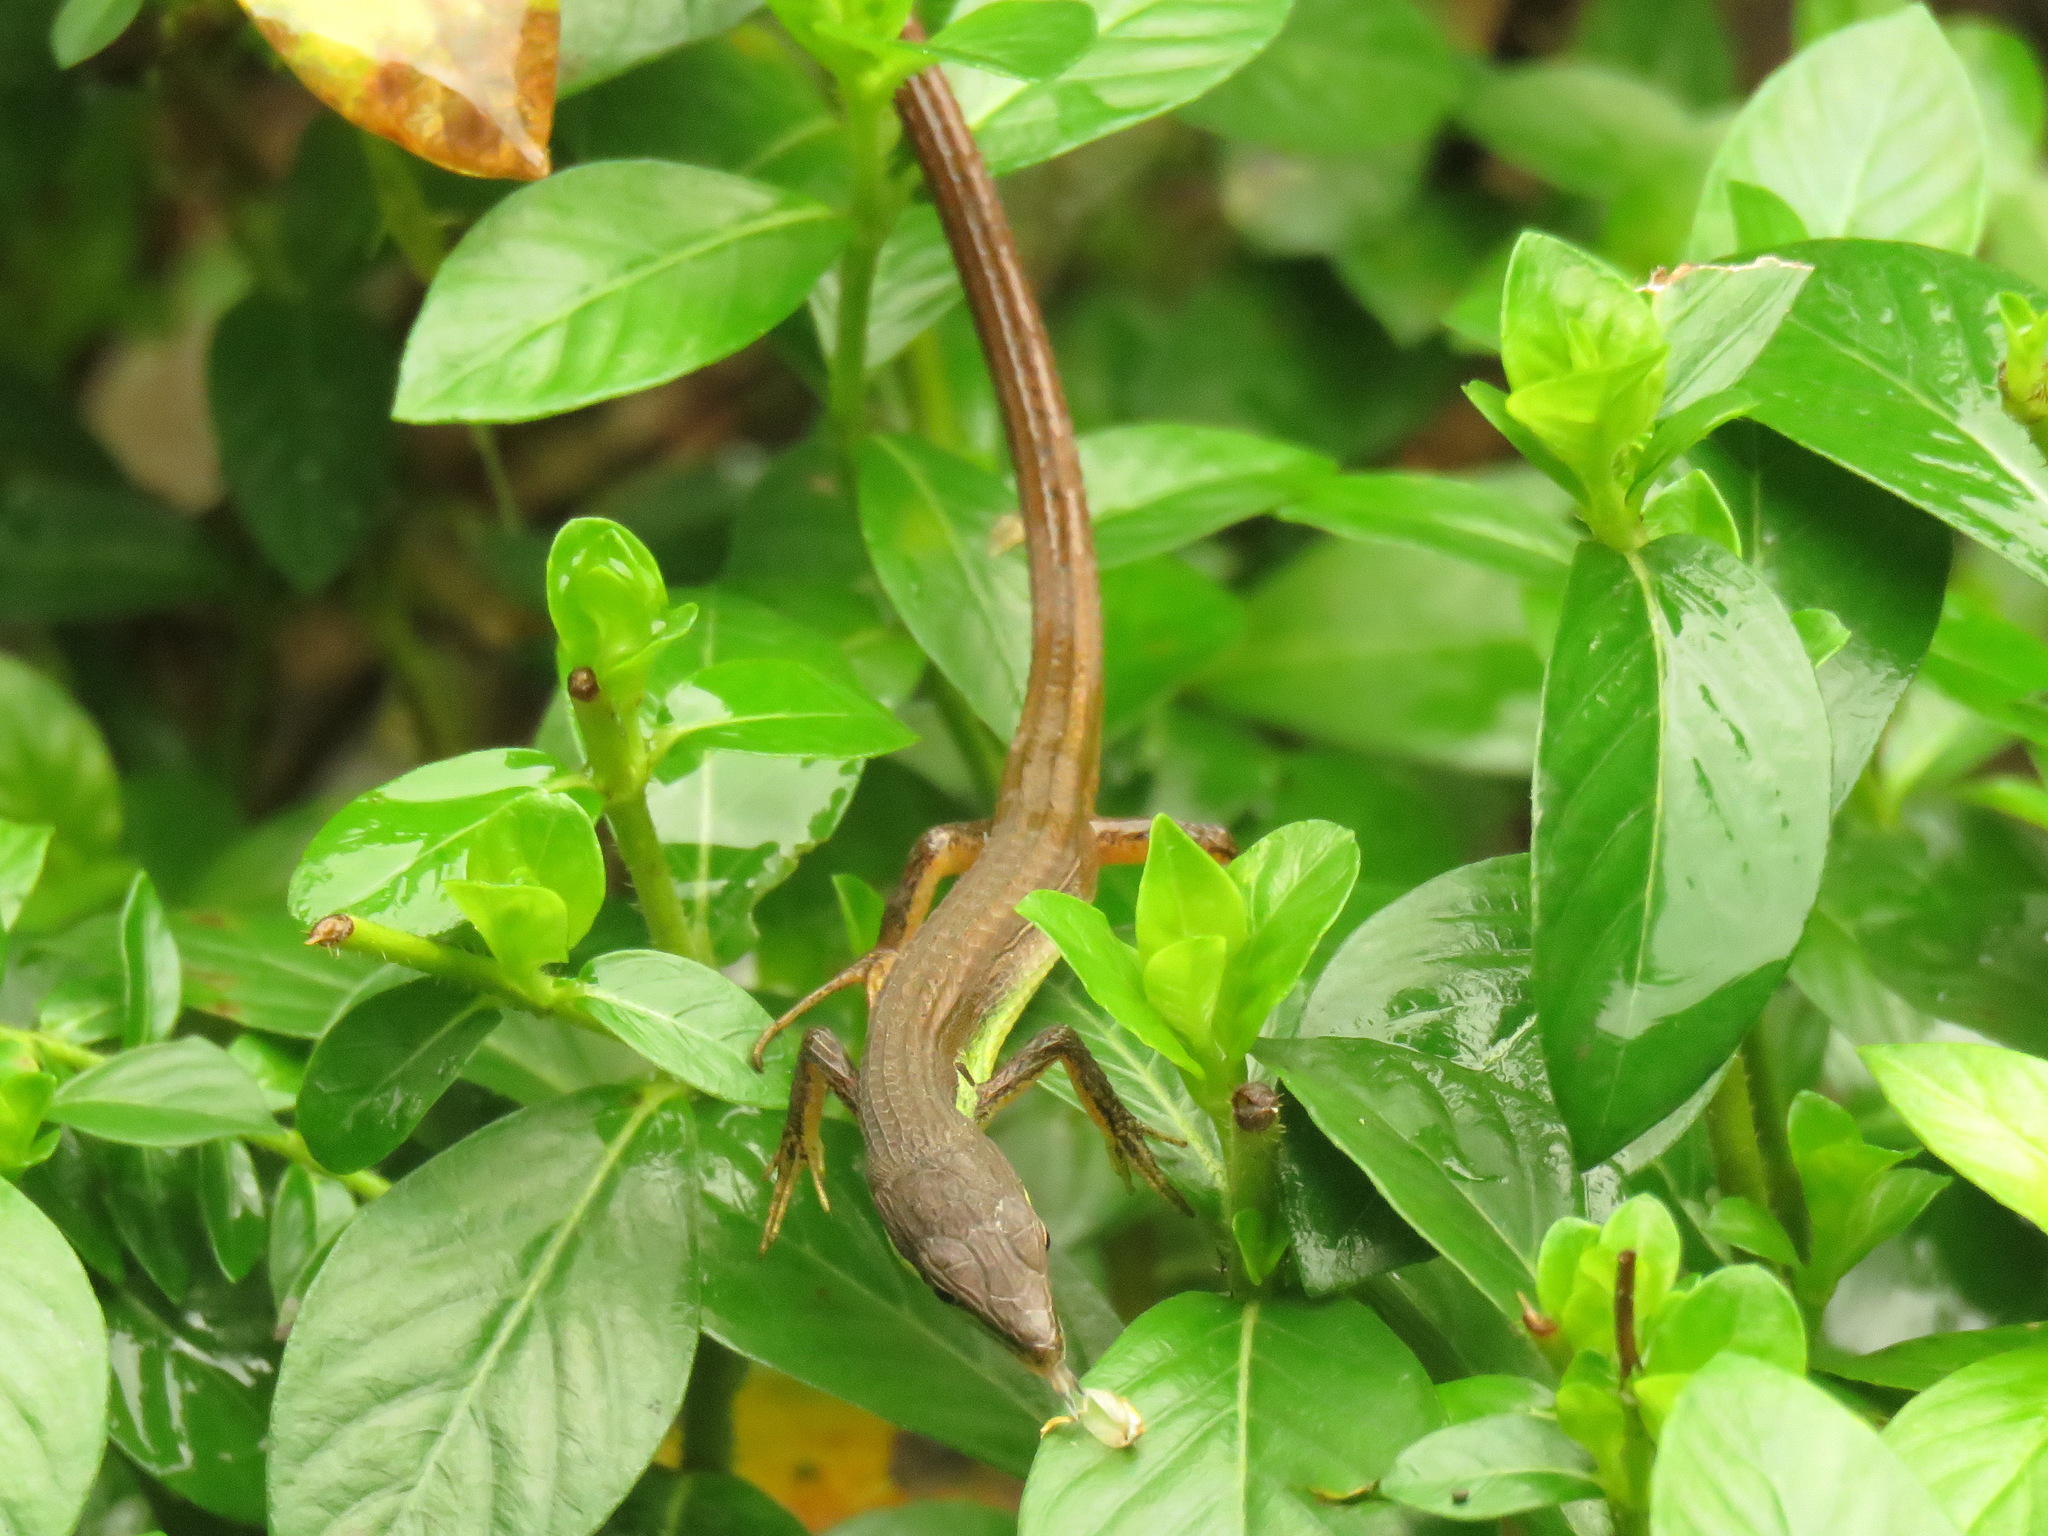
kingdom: Animalia
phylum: Chordata
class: Squamata
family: Lacertidae
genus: Takydromus
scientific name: Takydromus sexlineatus
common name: Asian grass lizard
